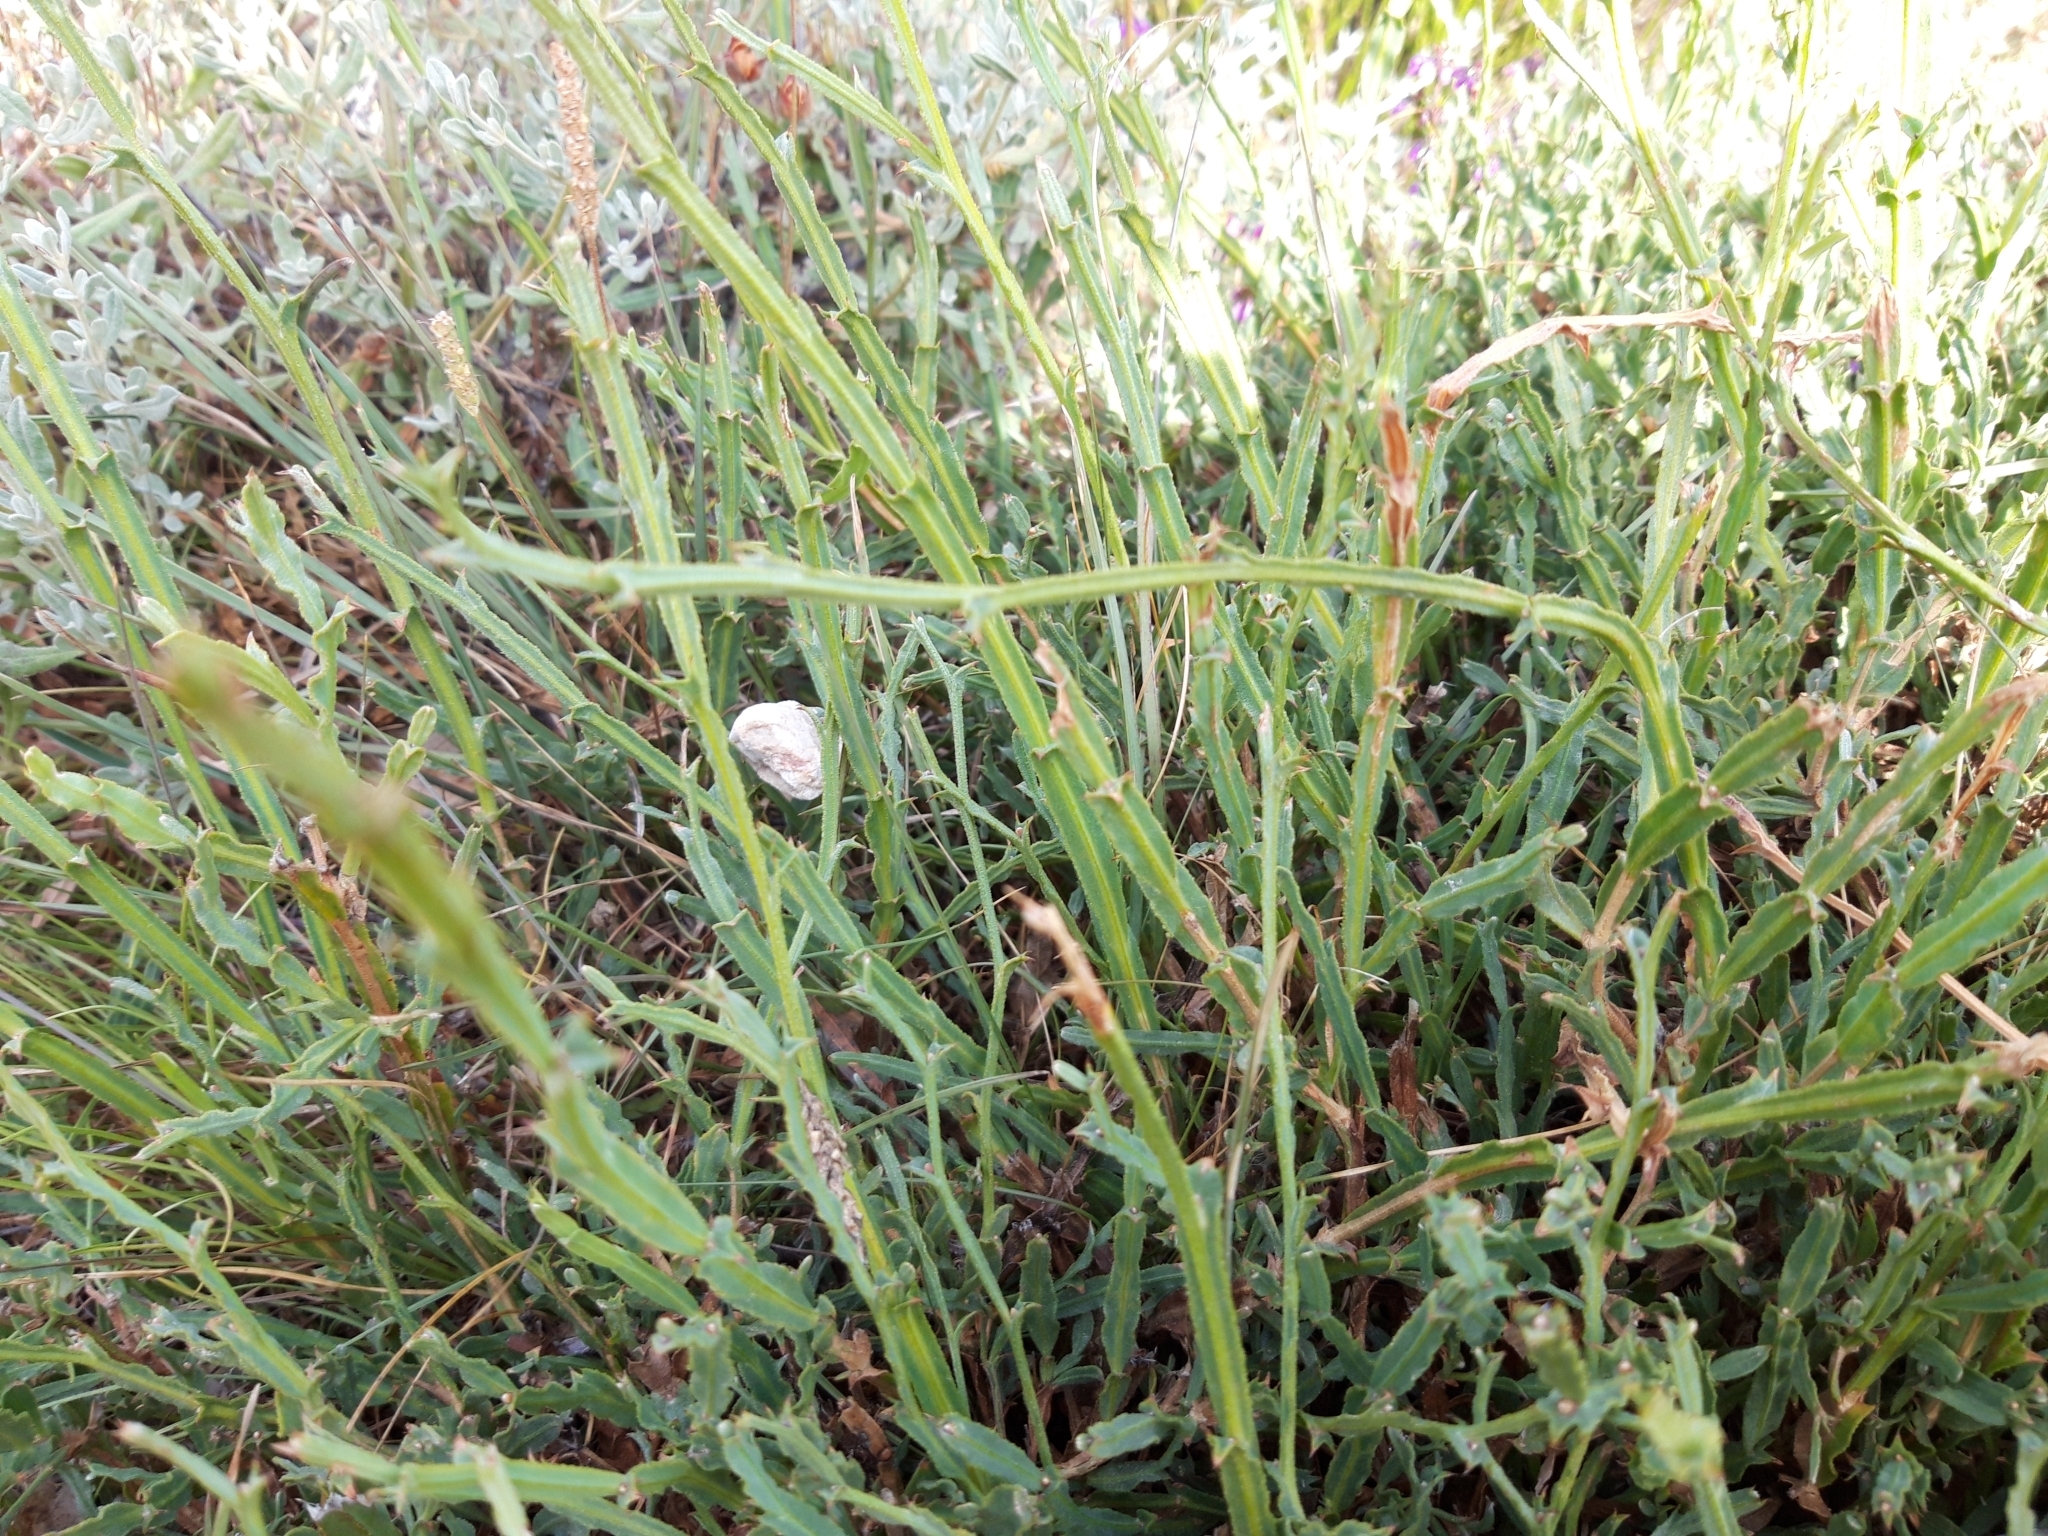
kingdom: Plantae
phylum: Tracheophyta
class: Magnoliopsida
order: Fabales
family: Fabaceae
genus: Genista
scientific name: Genista tridentata
